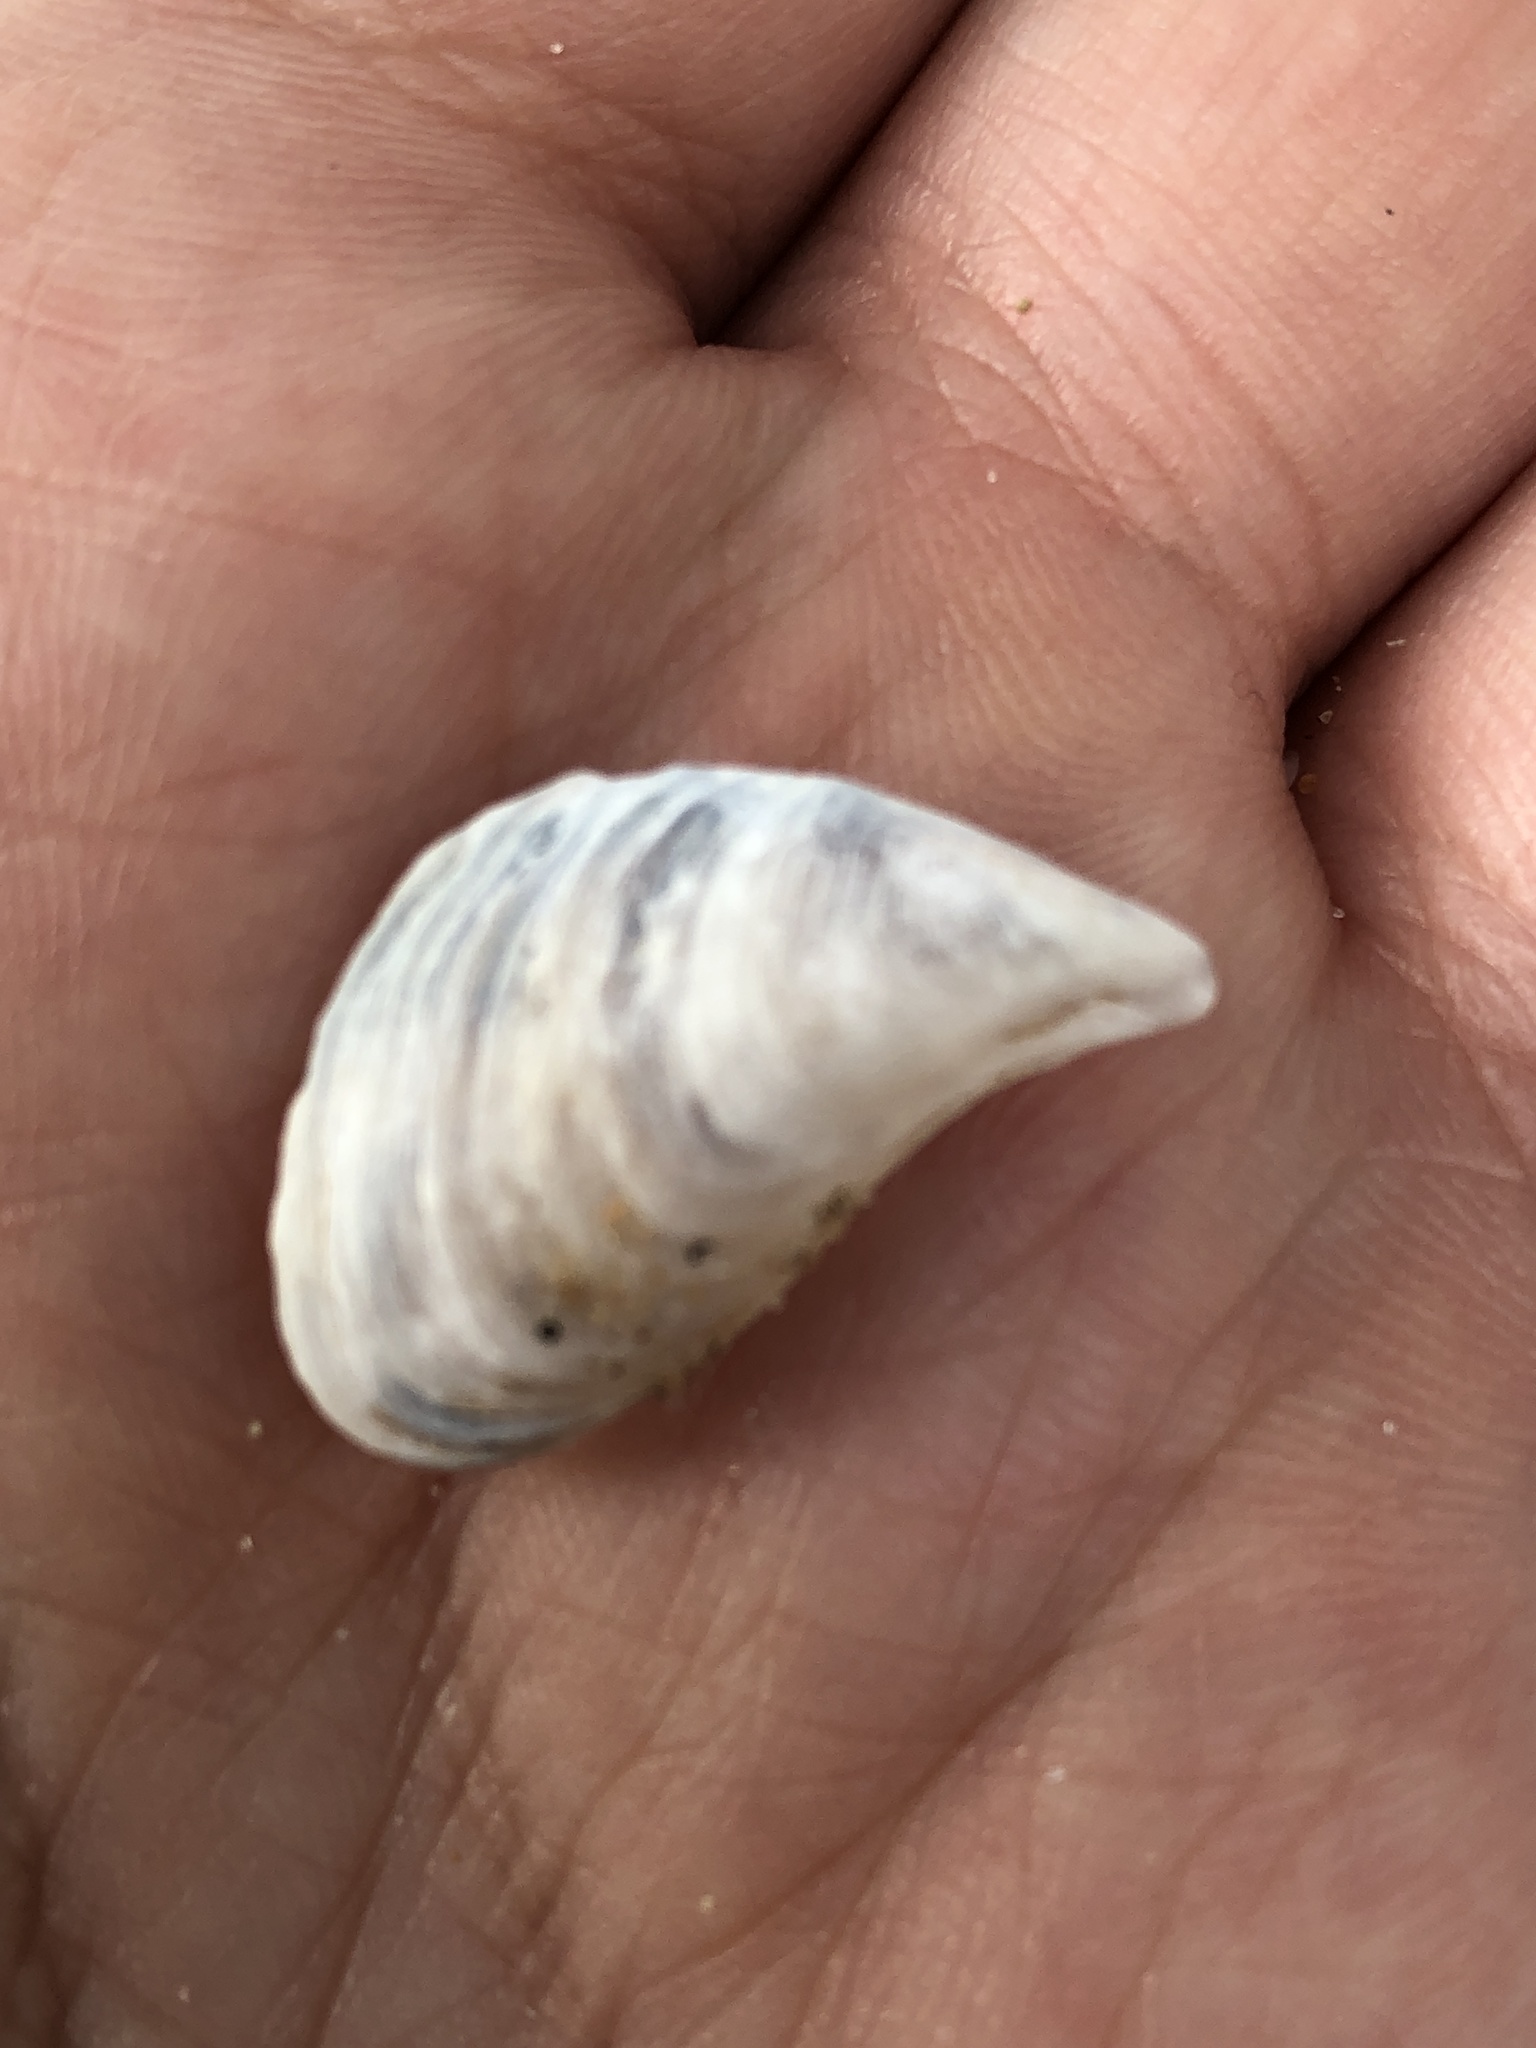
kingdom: Animalia
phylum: Mollusca
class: Bivalvia
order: Myida
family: Dreissenidae
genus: Dreissena
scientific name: Dreissena bugensis
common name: Quagga mussel
